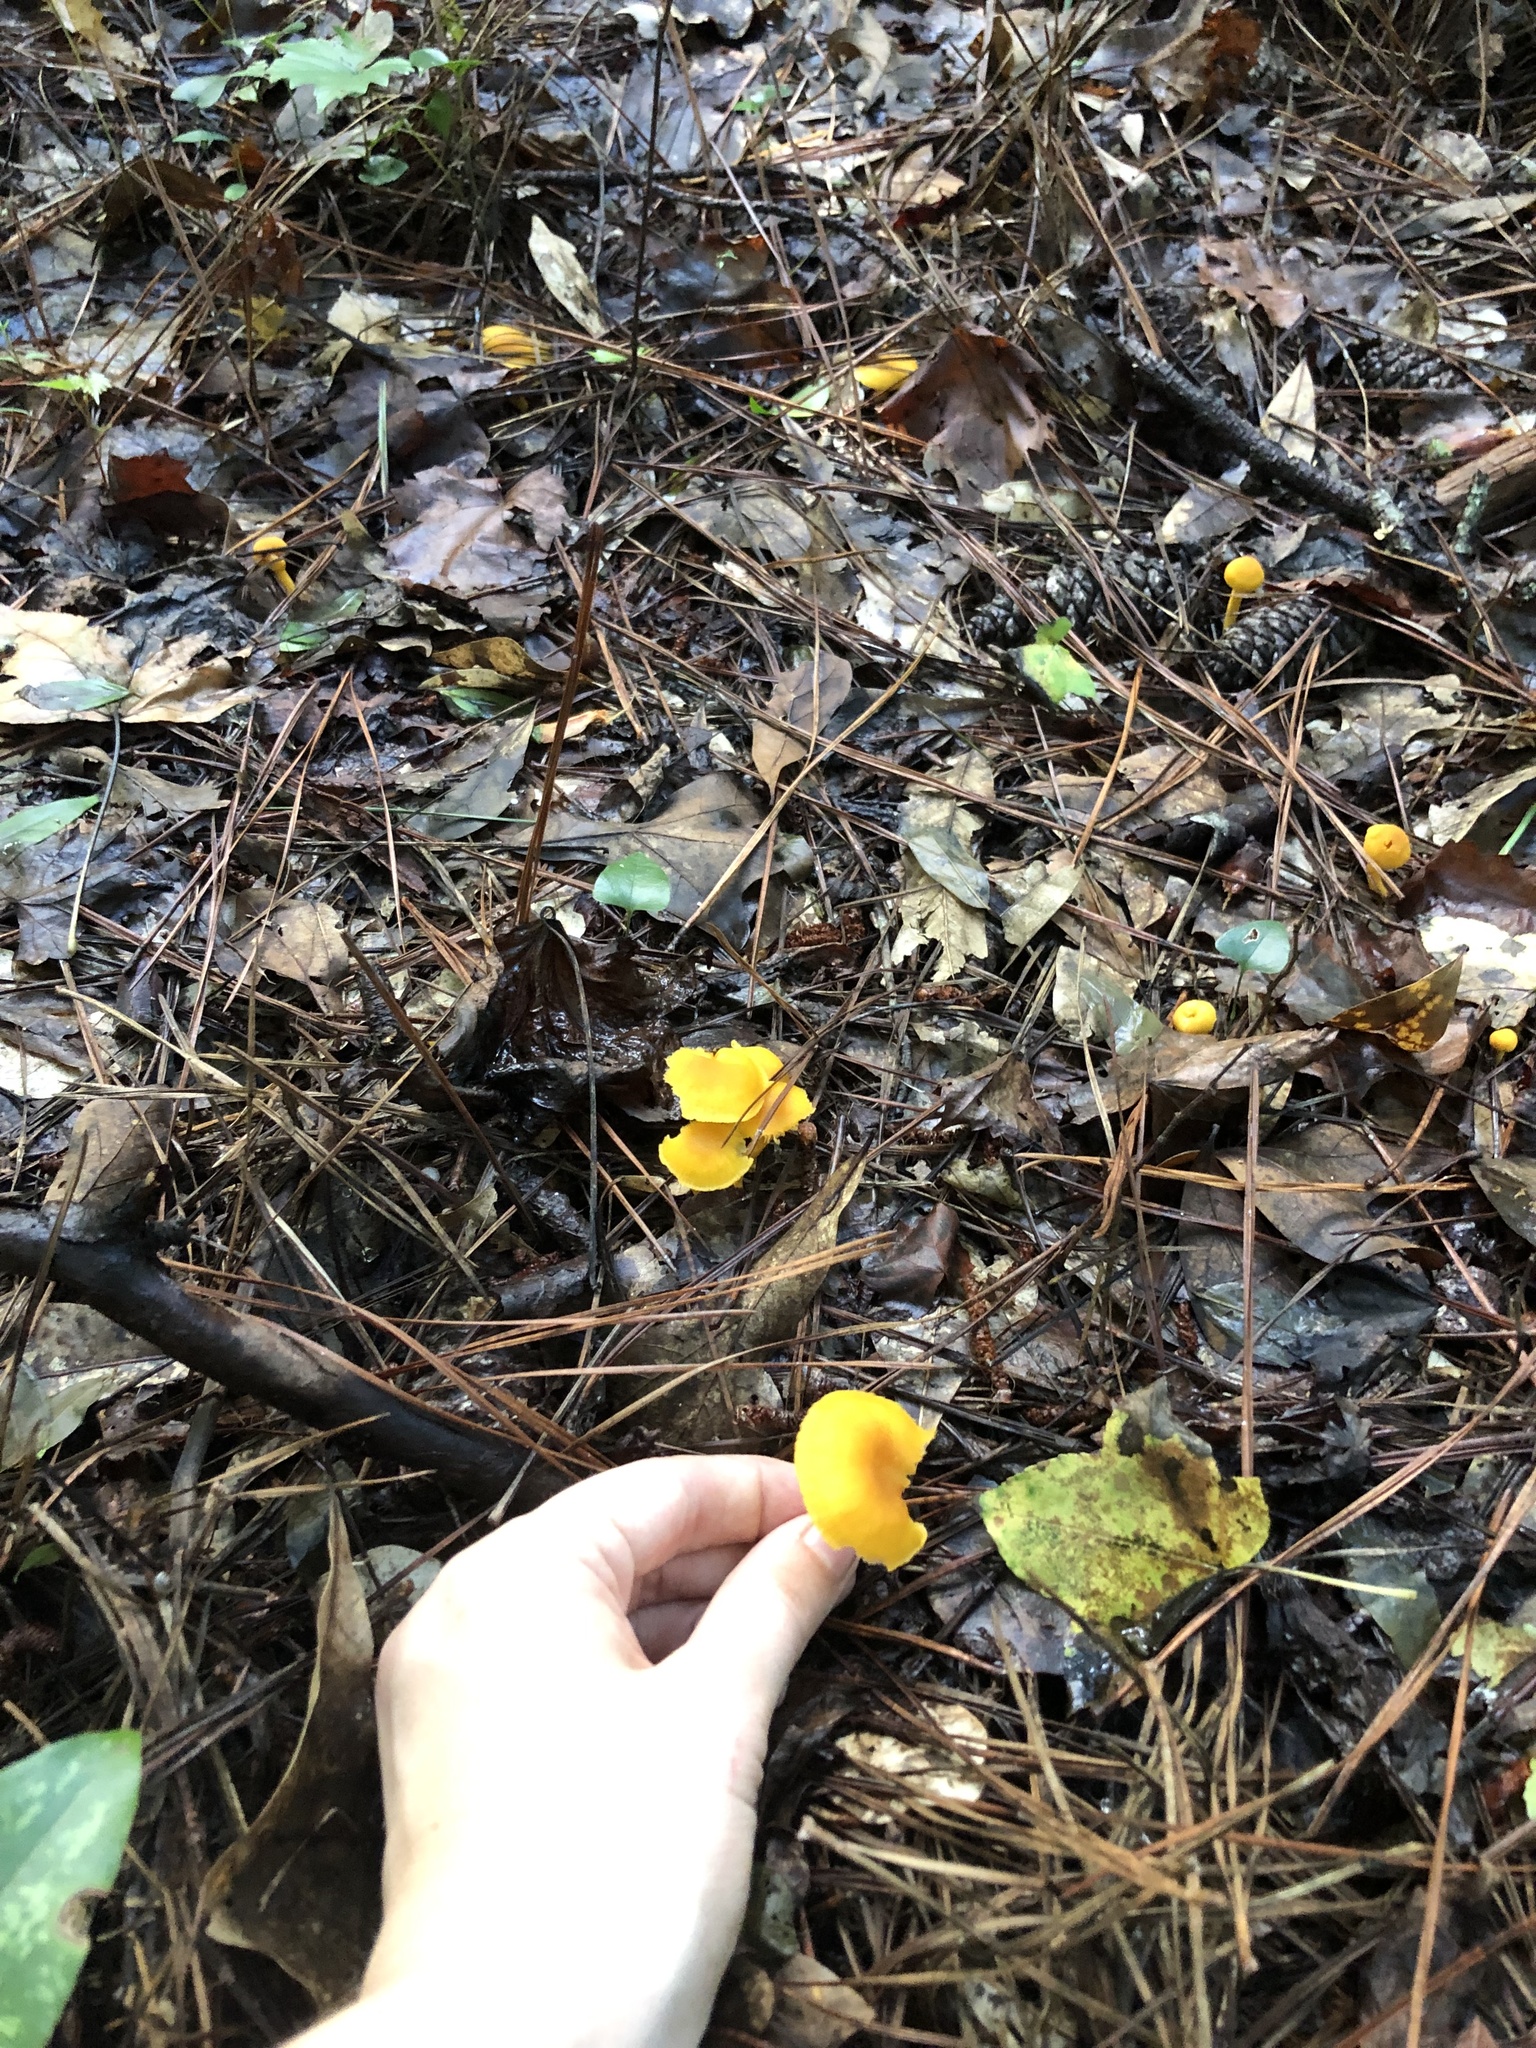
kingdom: Fungi
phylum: Basidiomycota
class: Agaricomycetes
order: Cantharellales
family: Hydnaceae
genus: Cantharellus
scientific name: Cantharellus minor
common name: Small chanterelle
